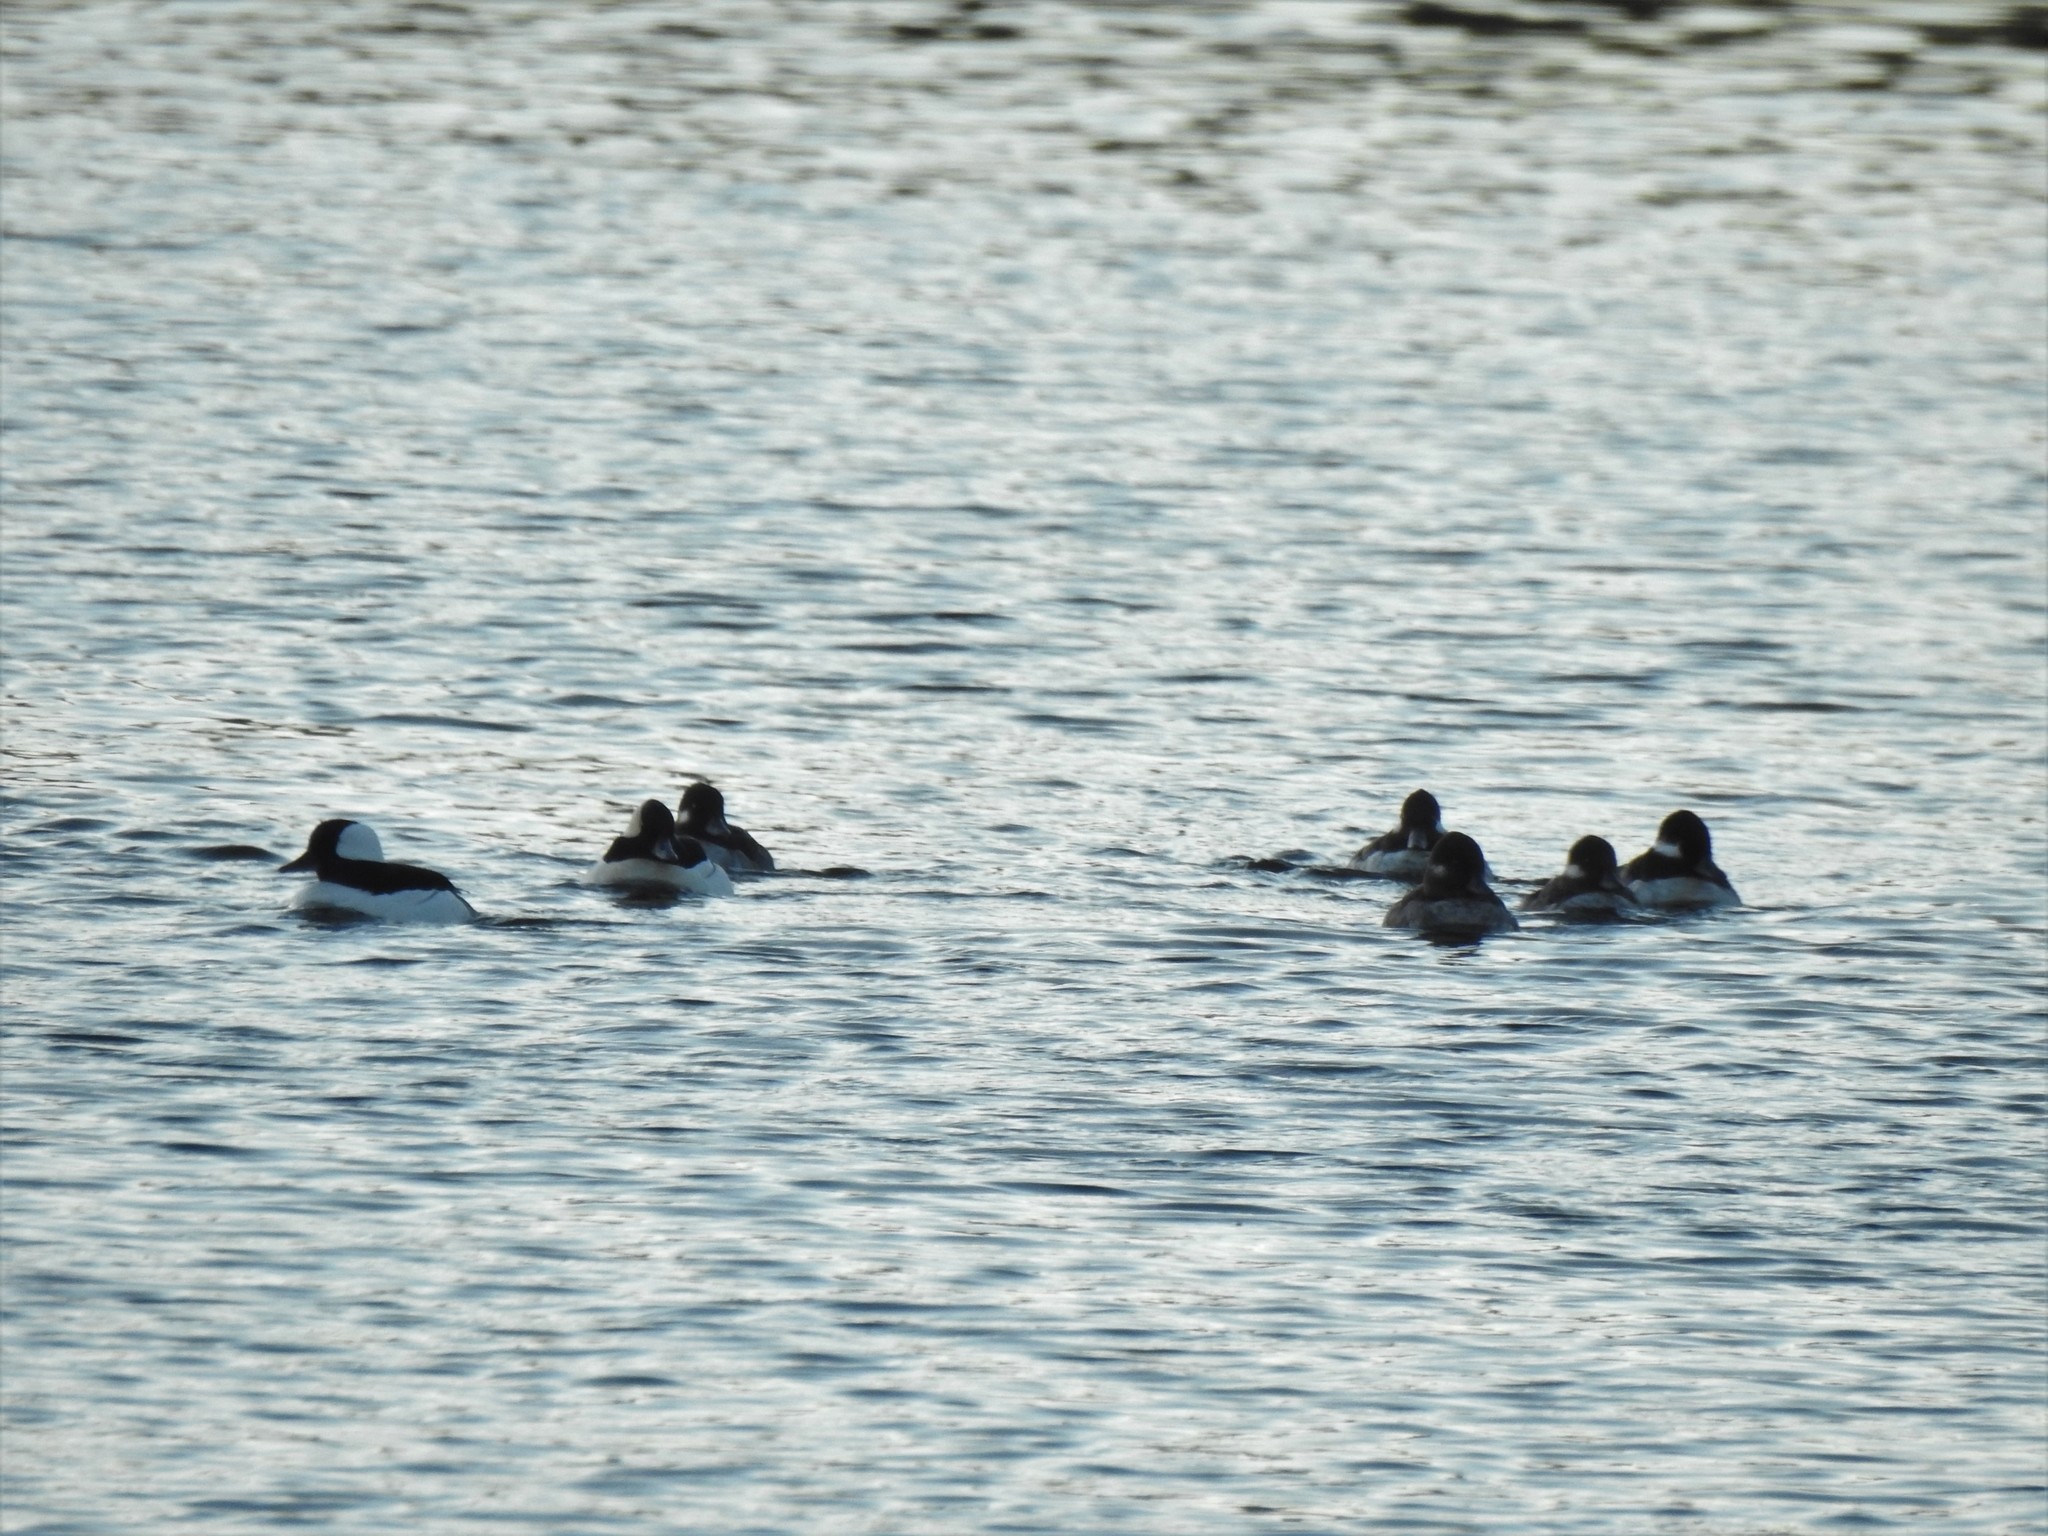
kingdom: Animalia
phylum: Chordata
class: Aves
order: Anseriformes
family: Anatidae
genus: Bucephala
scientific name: Bucephala albeola
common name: Bufflehead
